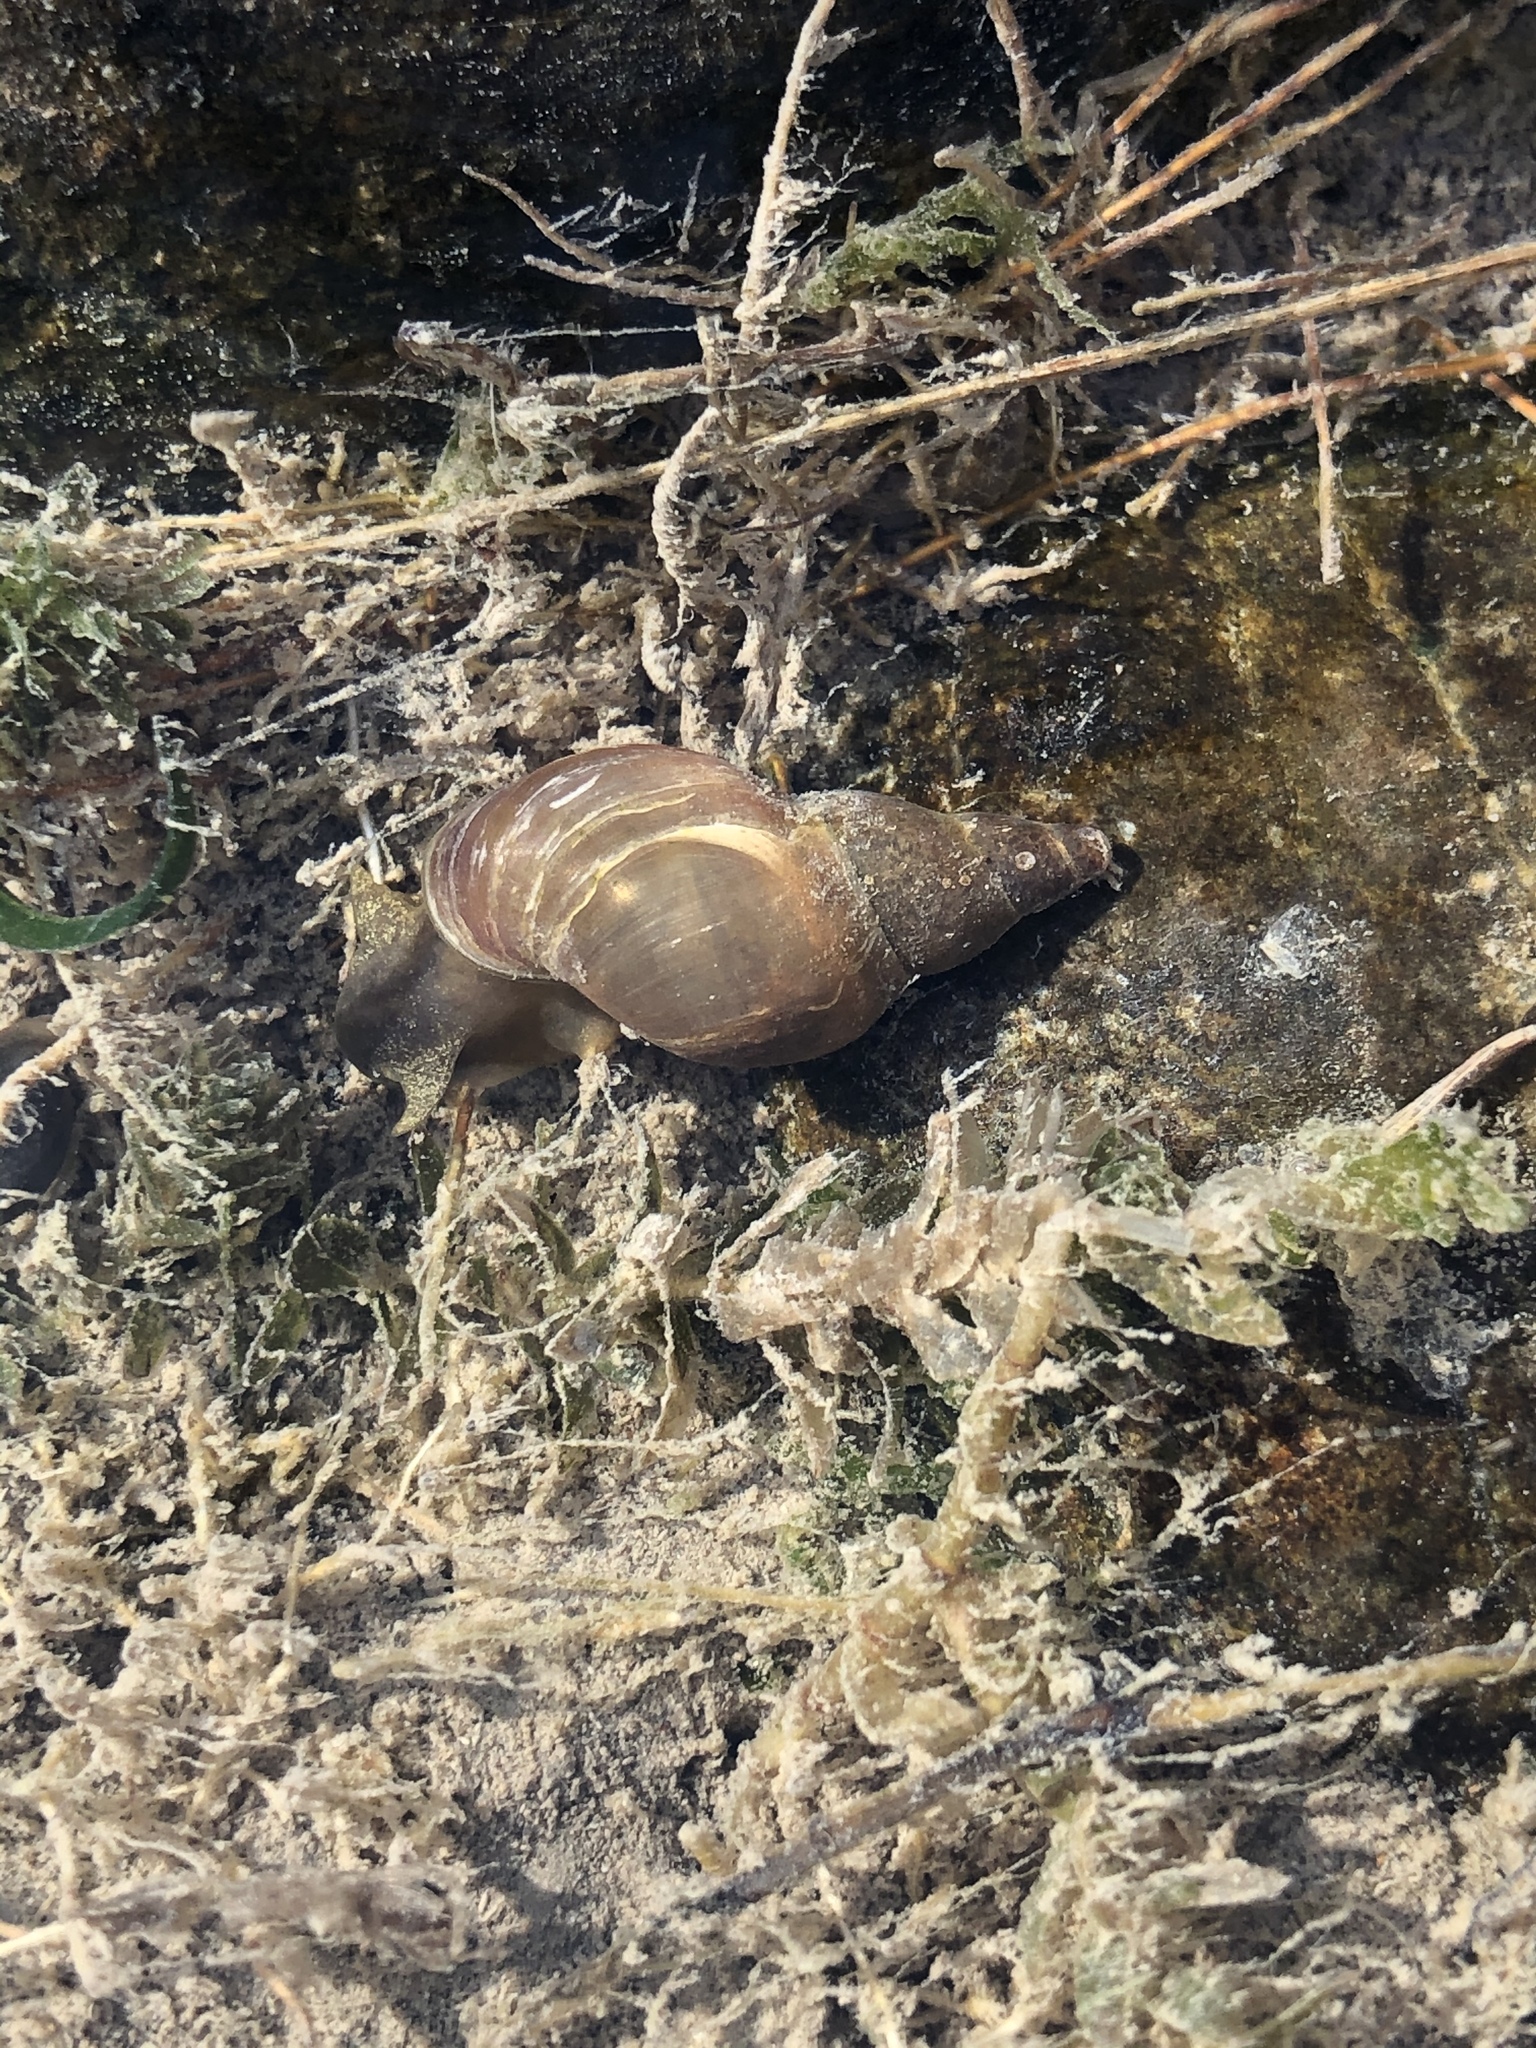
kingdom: Animalia
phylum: Mollusca
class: Gastropoda
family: Lymnaeidae
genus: Lymnaea
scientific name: Lymnaea stagnalis
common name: Great pond snail
